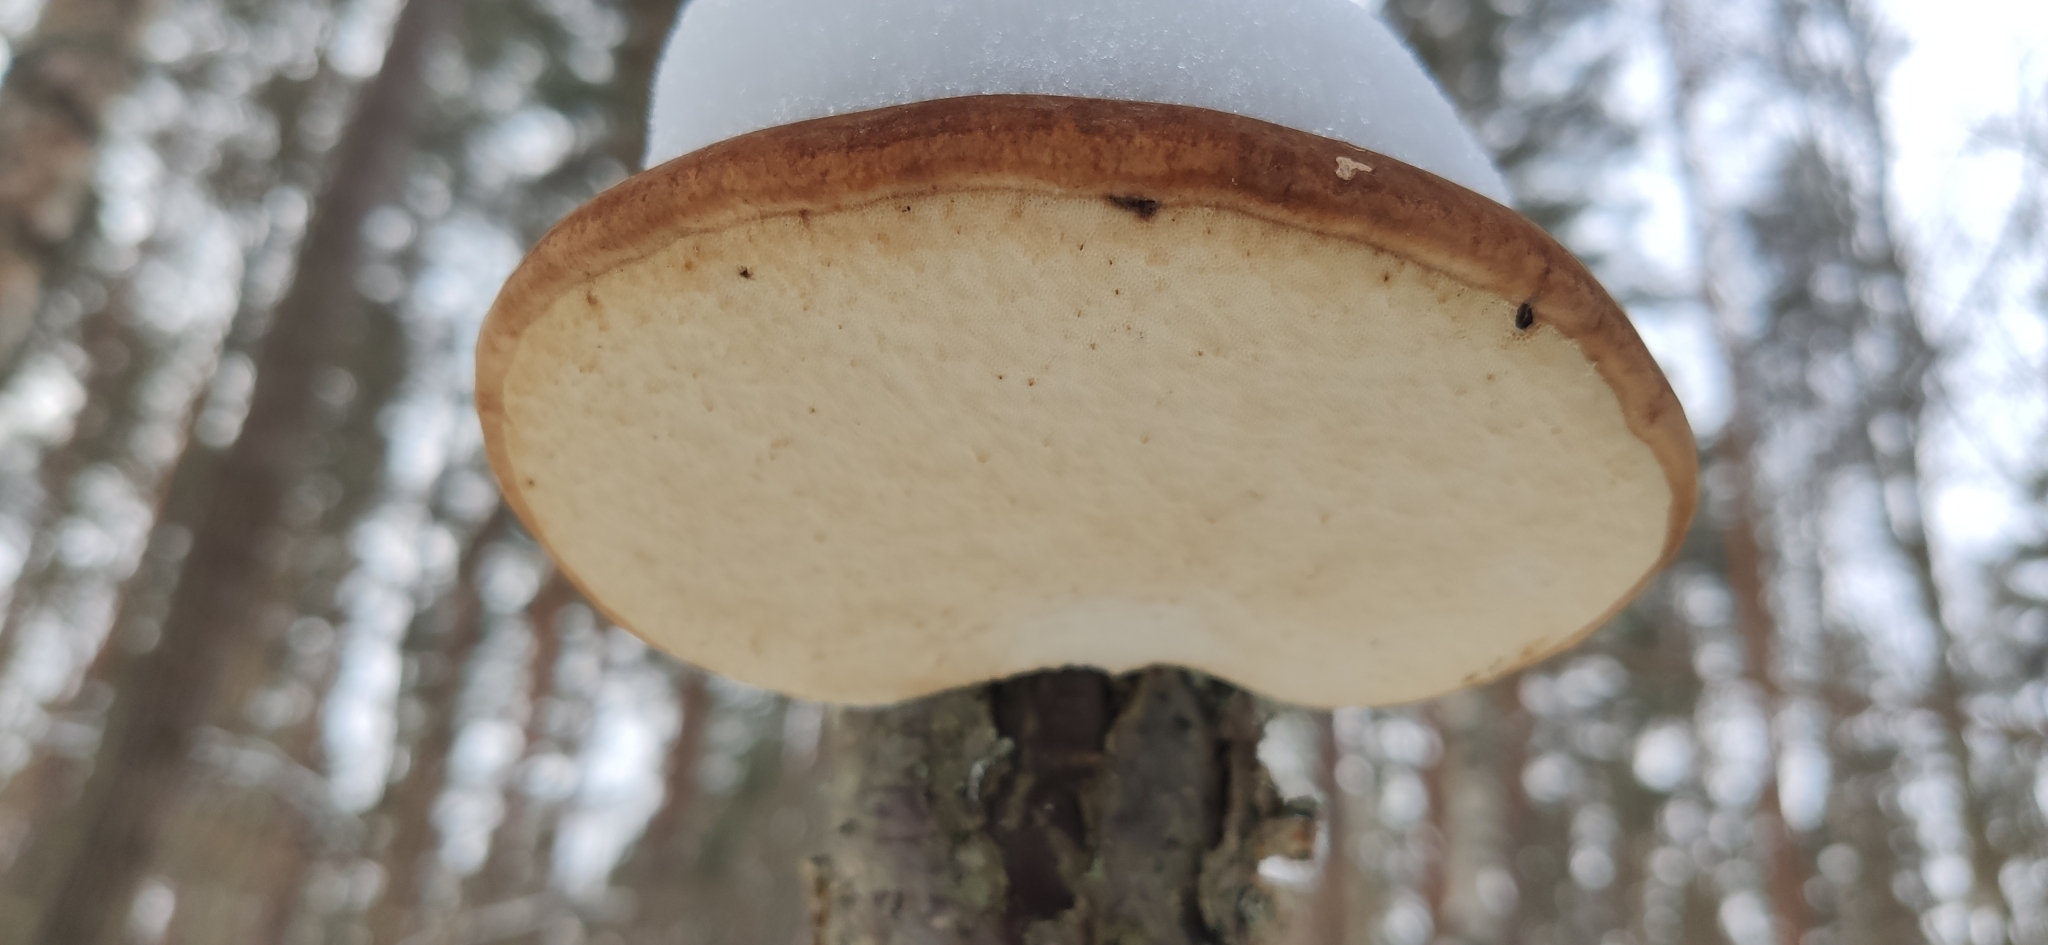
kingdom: Fungi
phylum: Basidiomycota
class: Agaricomycetes
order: Polyporales
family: Fomitopsidaceae
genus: Fomitopsis
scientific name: Fomitopsis betulina
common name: Birch polypore
